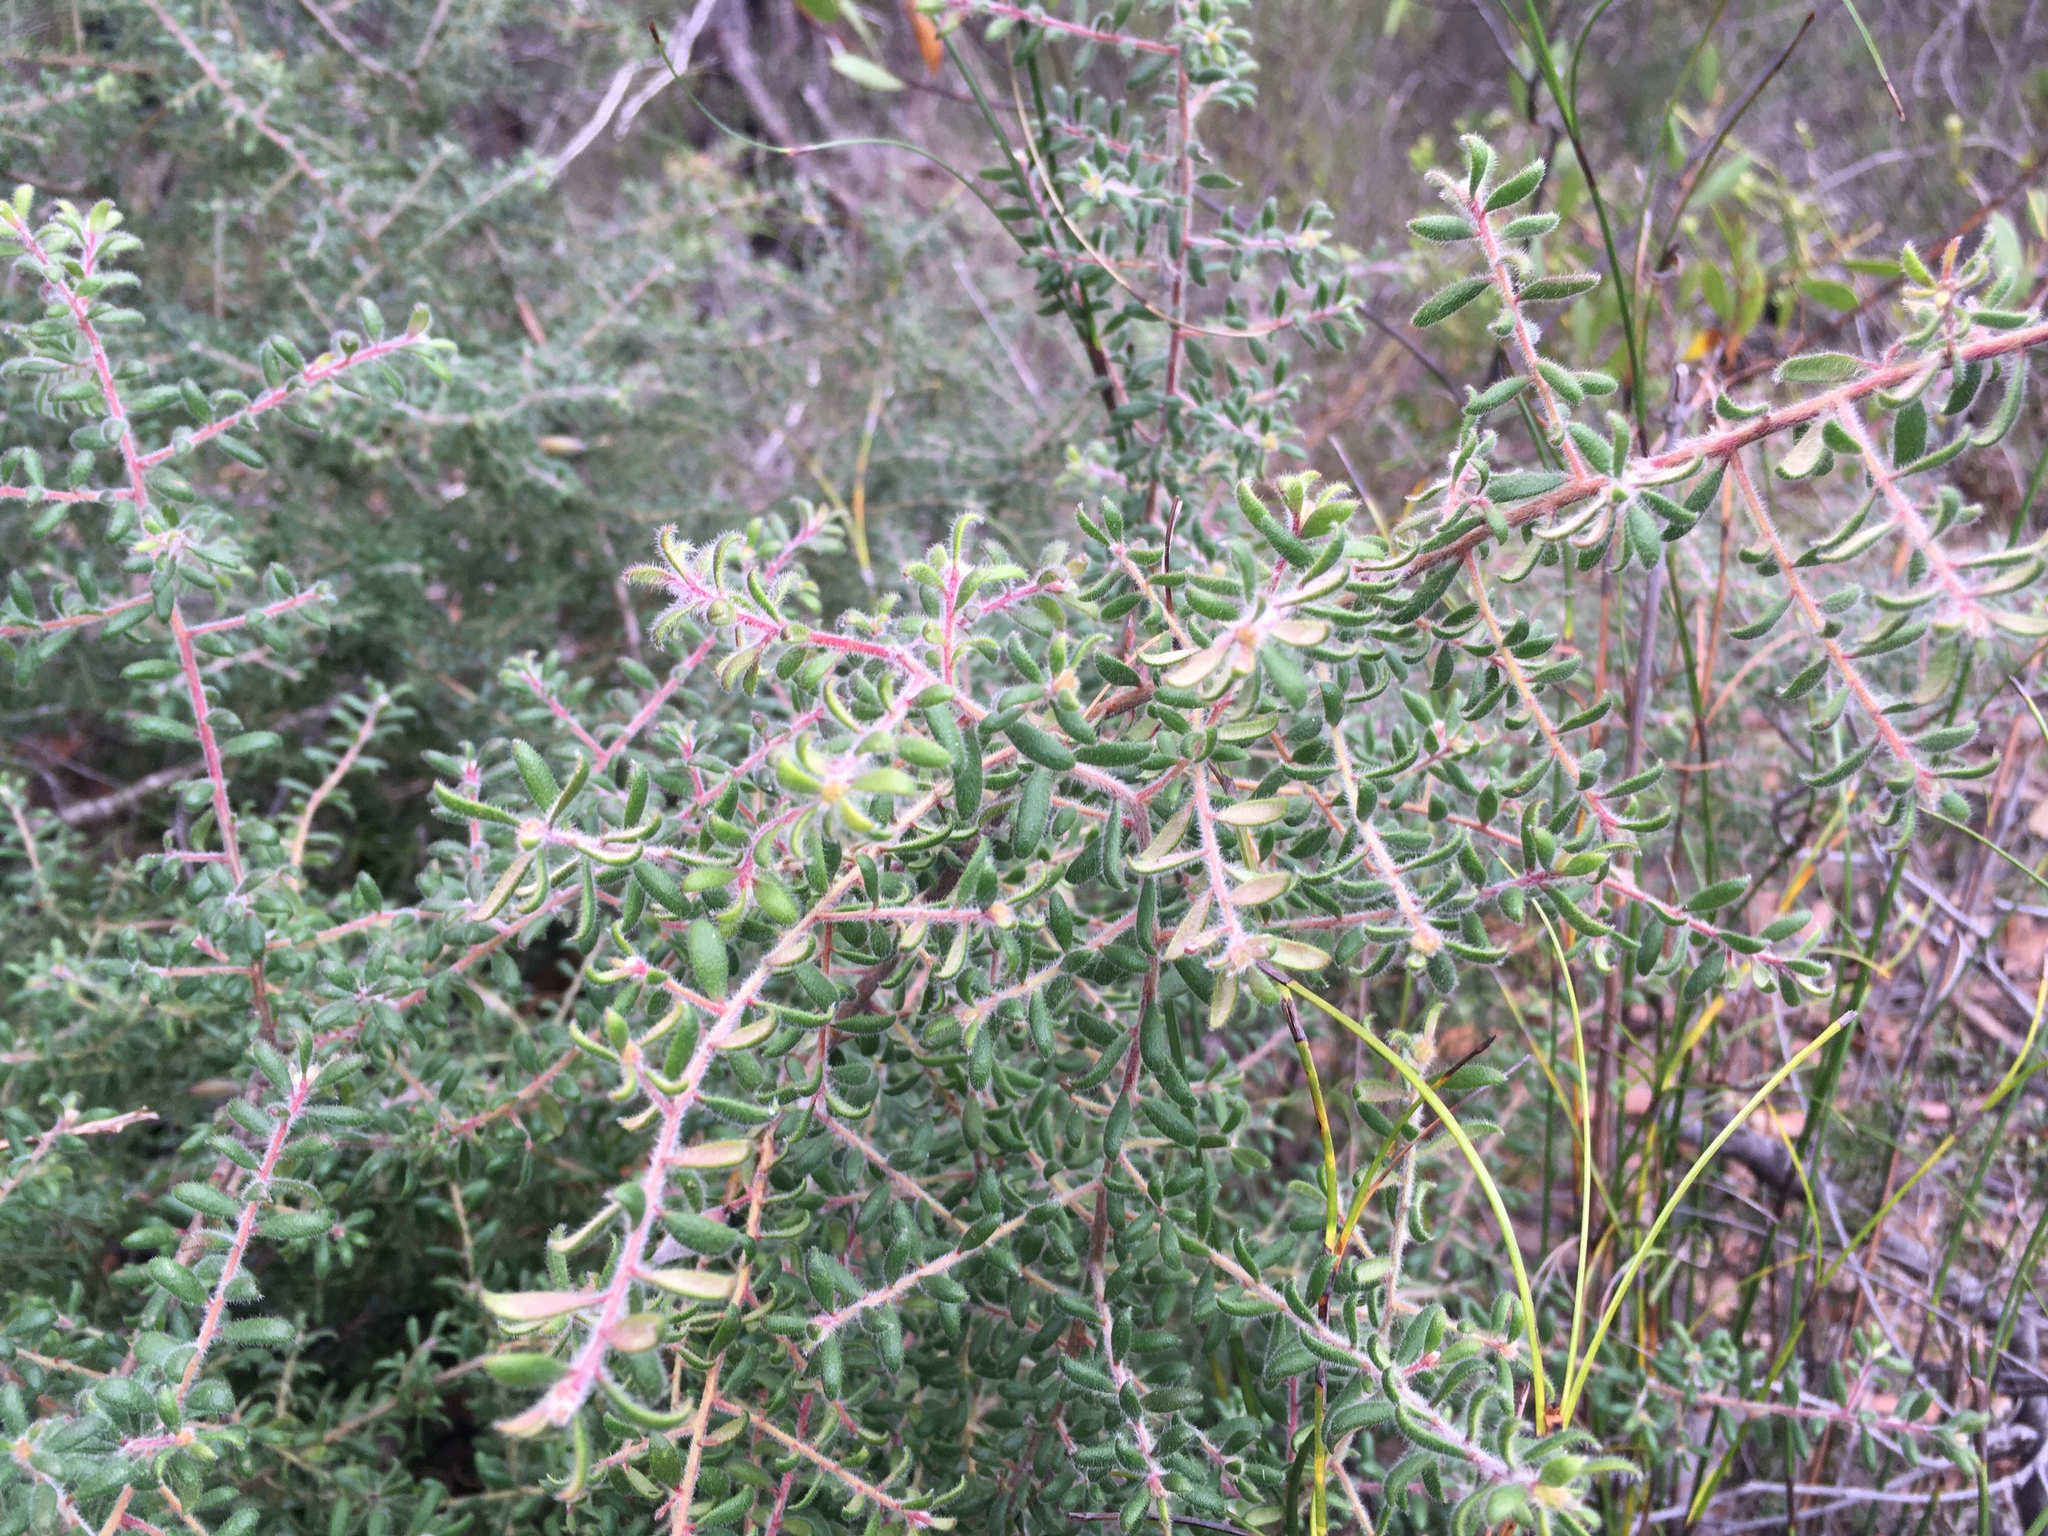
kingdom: Plantae
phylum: Tracheophyta
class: Magnoliopsida
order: Proteales
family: Proteaceae
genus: Persoonia
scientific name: Persoonia hirsuta
